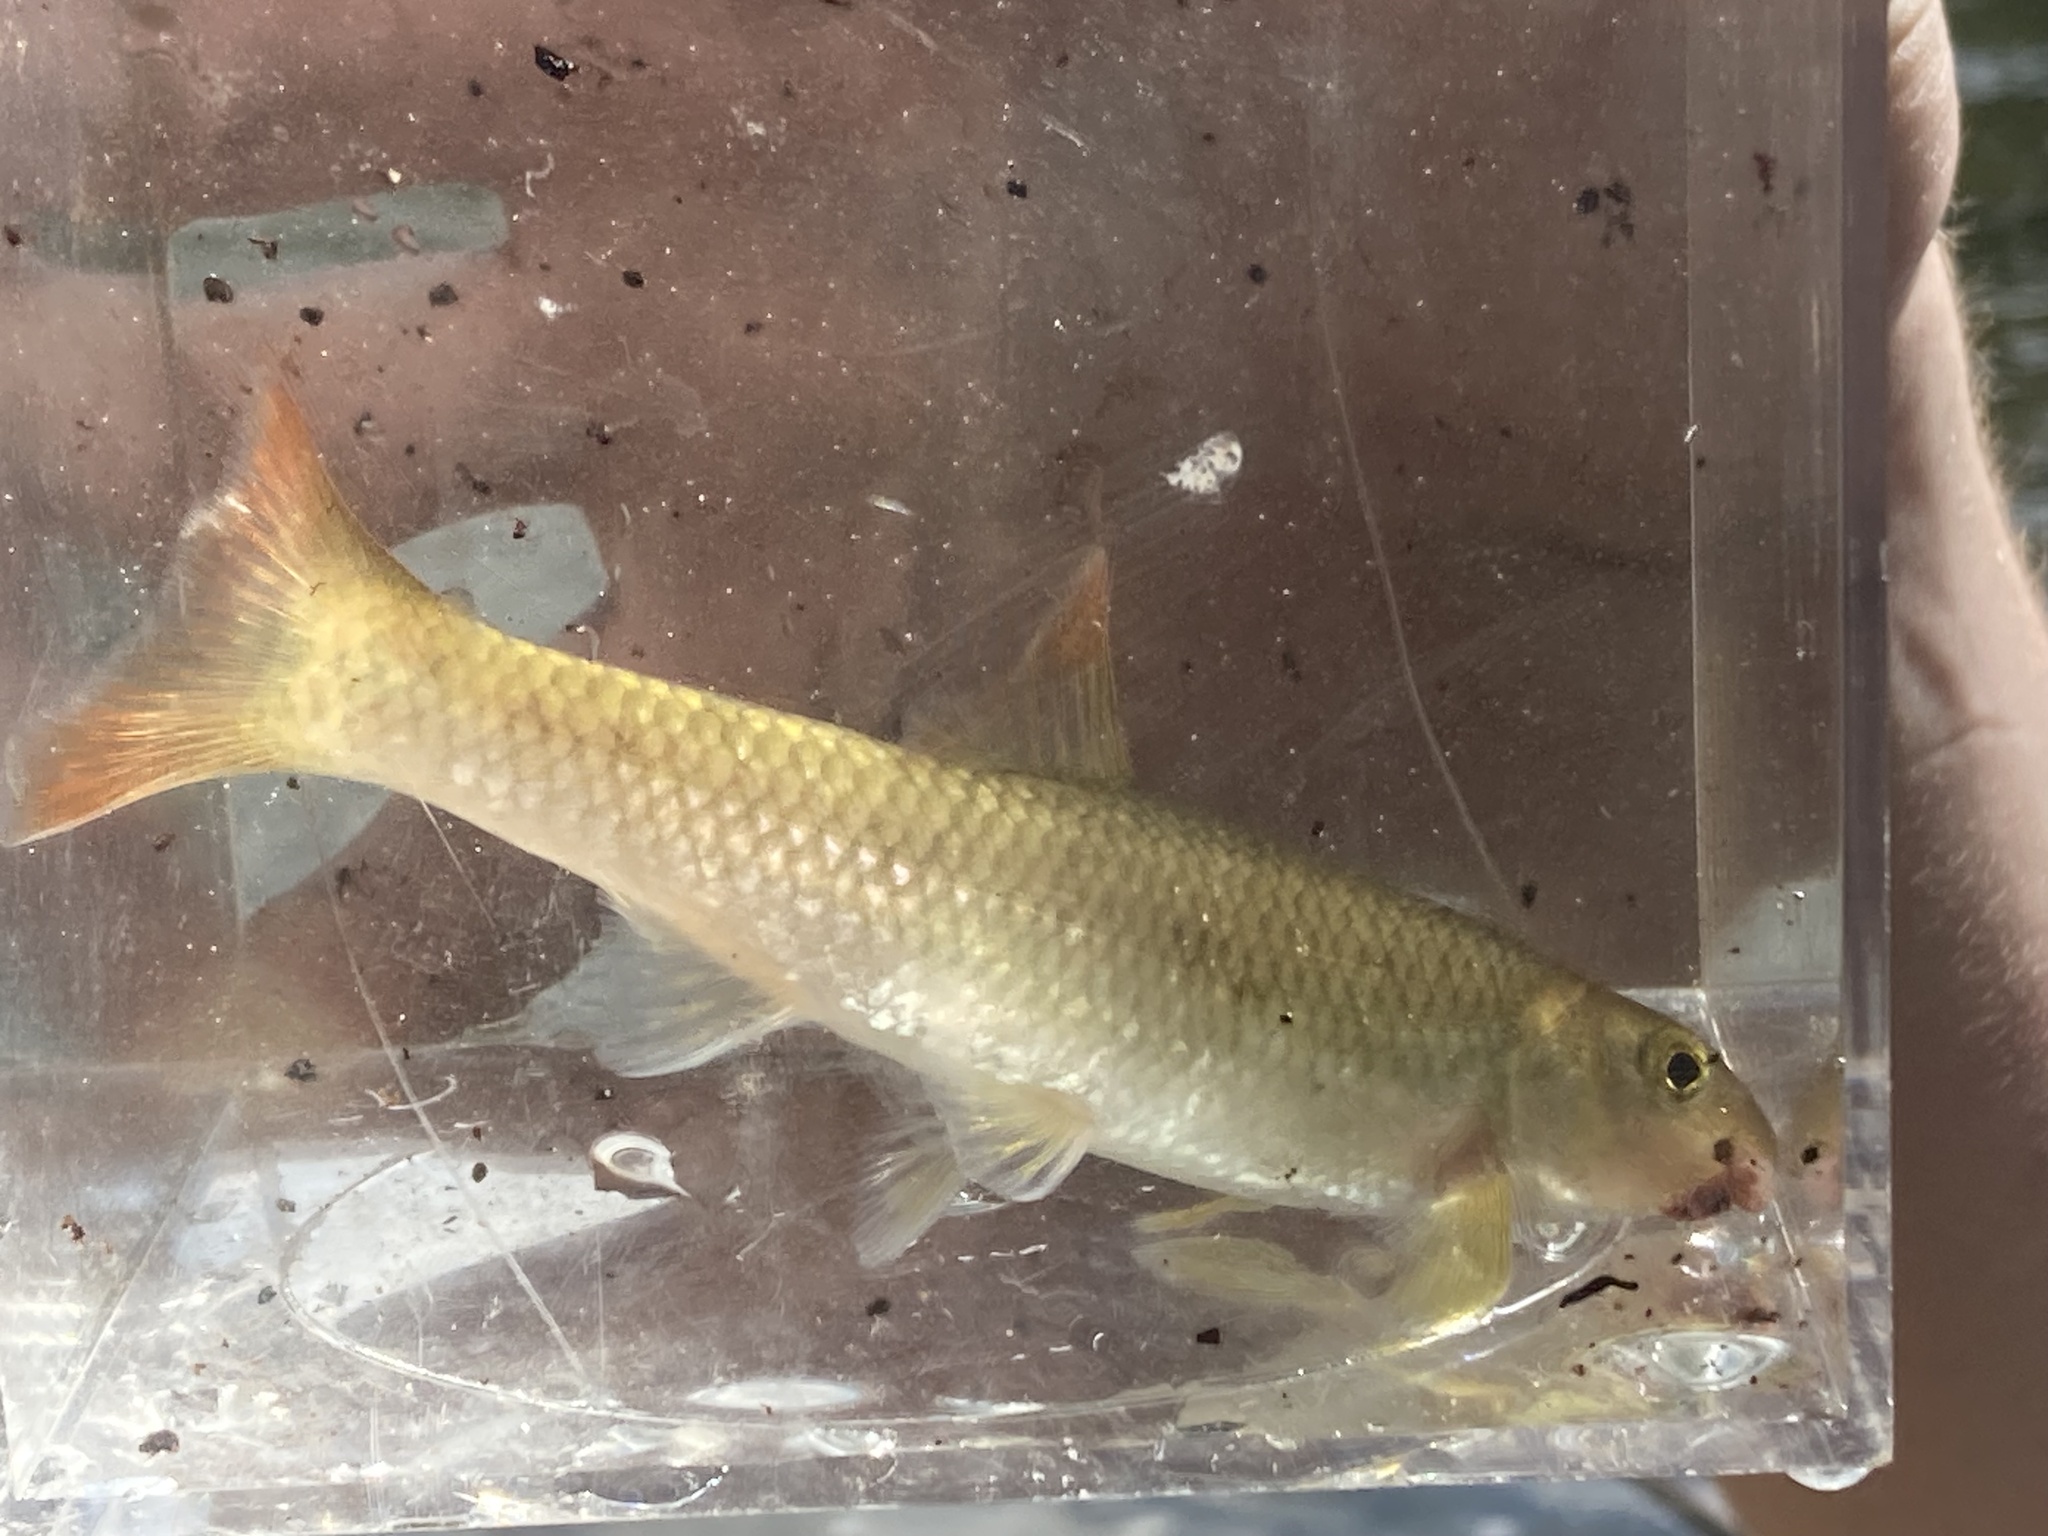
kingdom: Animalia
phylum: Chordata
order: Cypriniformes
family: Cyprinidae
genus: Nocomis
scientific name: Nocomis micropogon
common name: River chub
